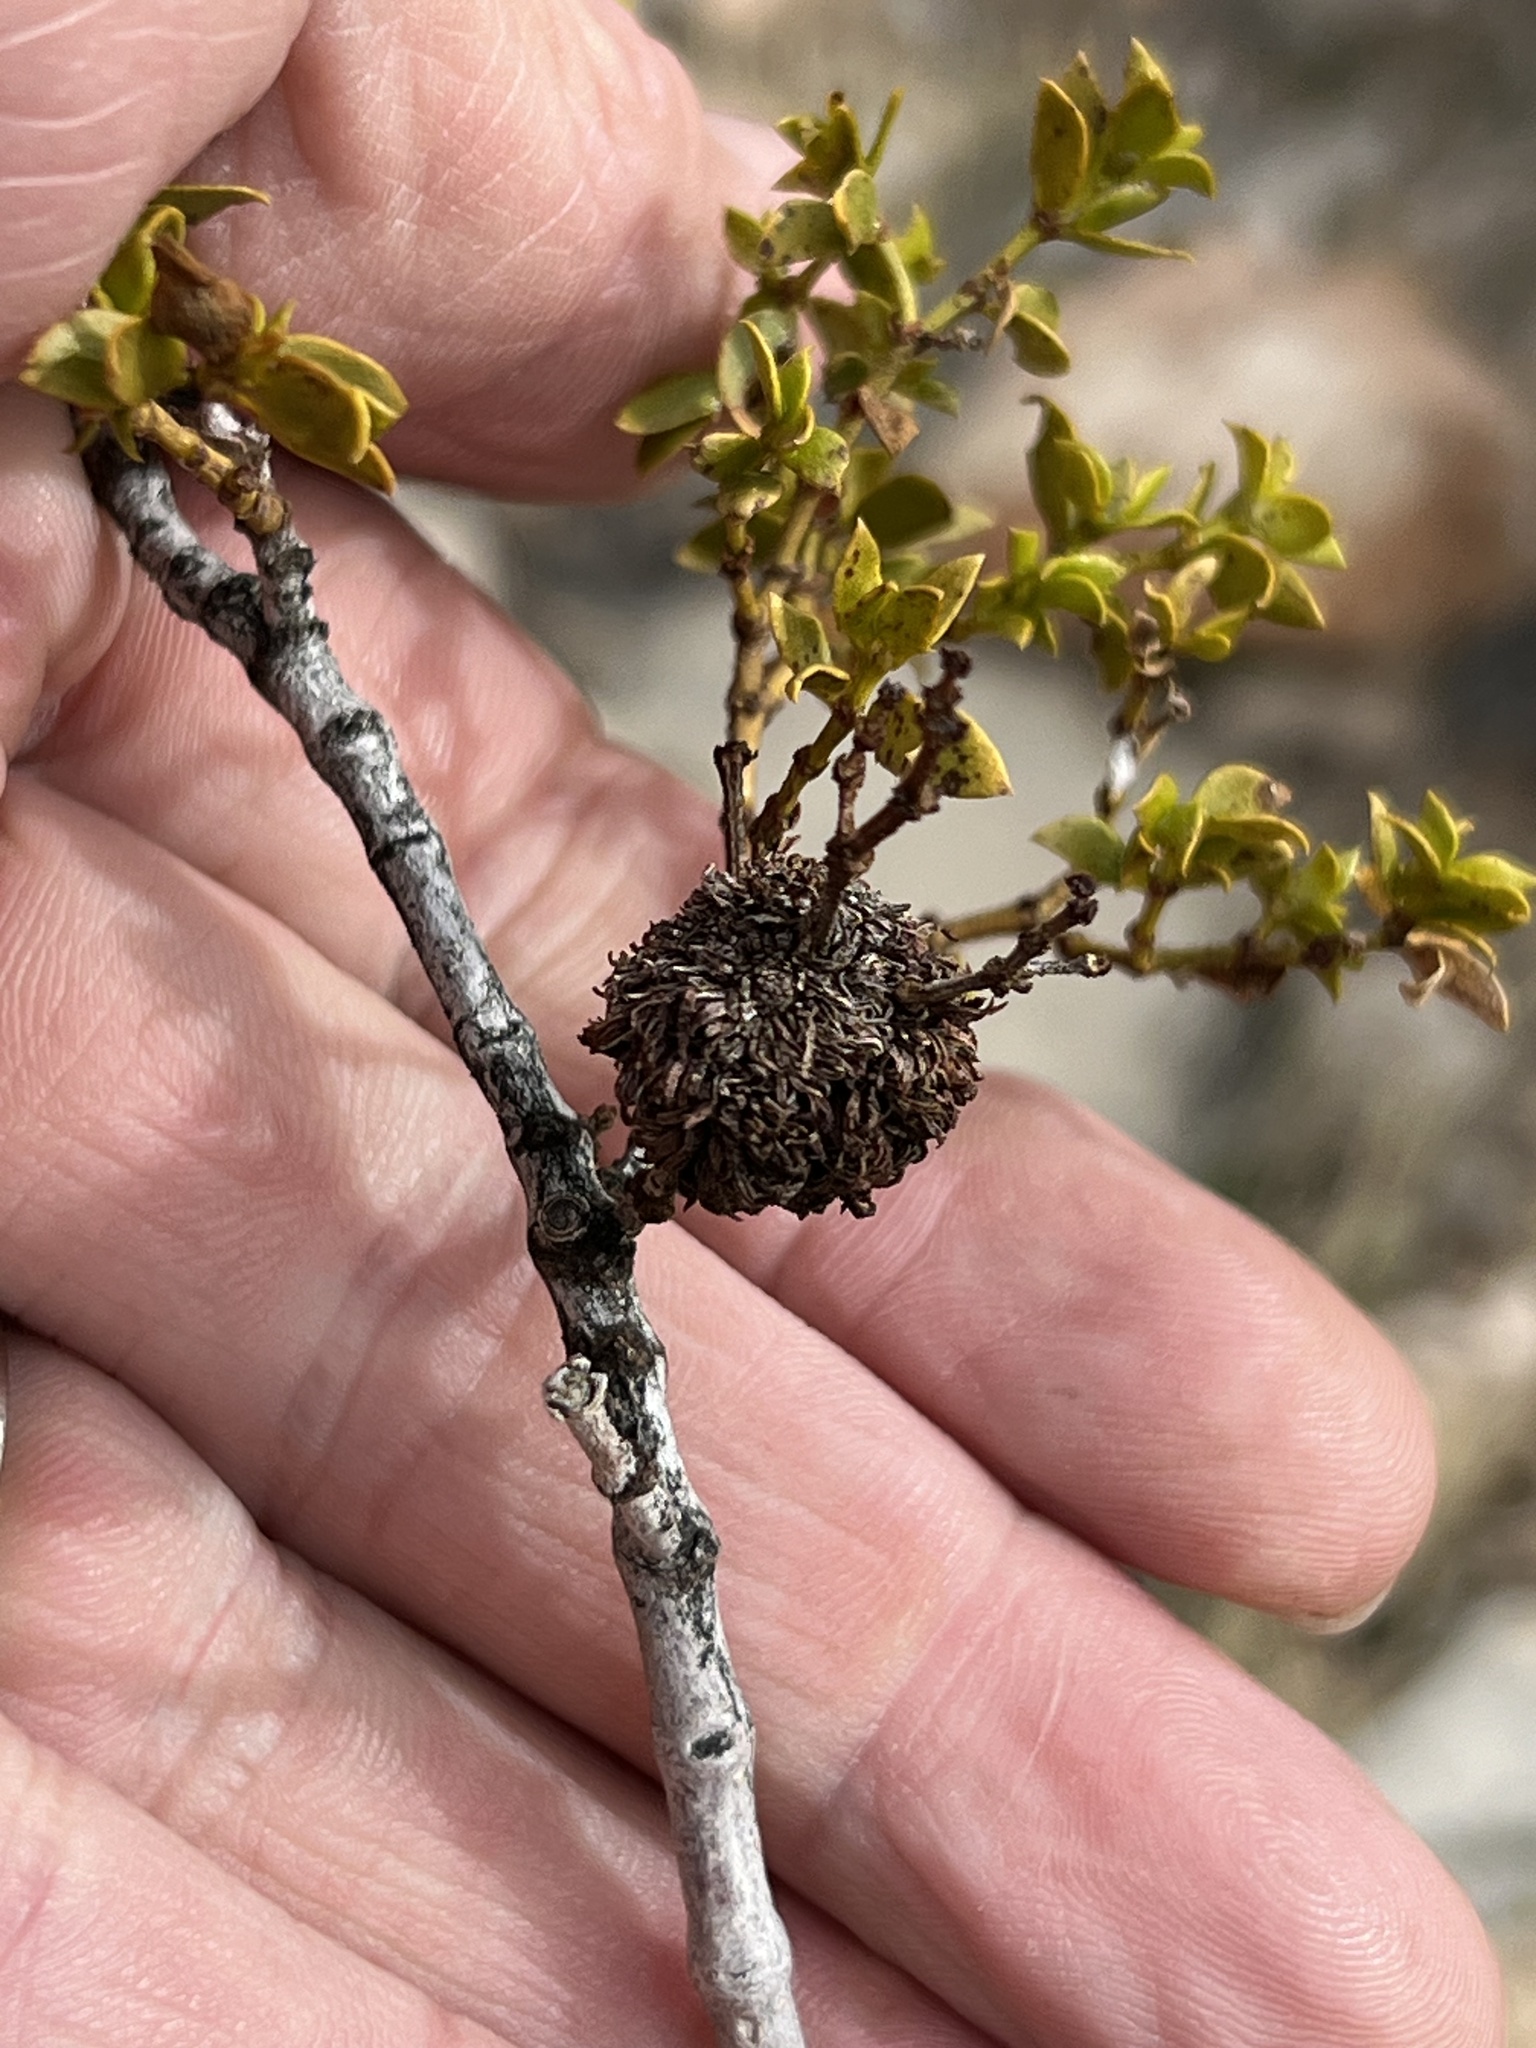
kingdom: Animalia
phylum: Arthropoda
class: Insecta
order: Diptera
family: Cecidomyiidae
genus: Asphondylia
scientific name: Asphondylia auripila
